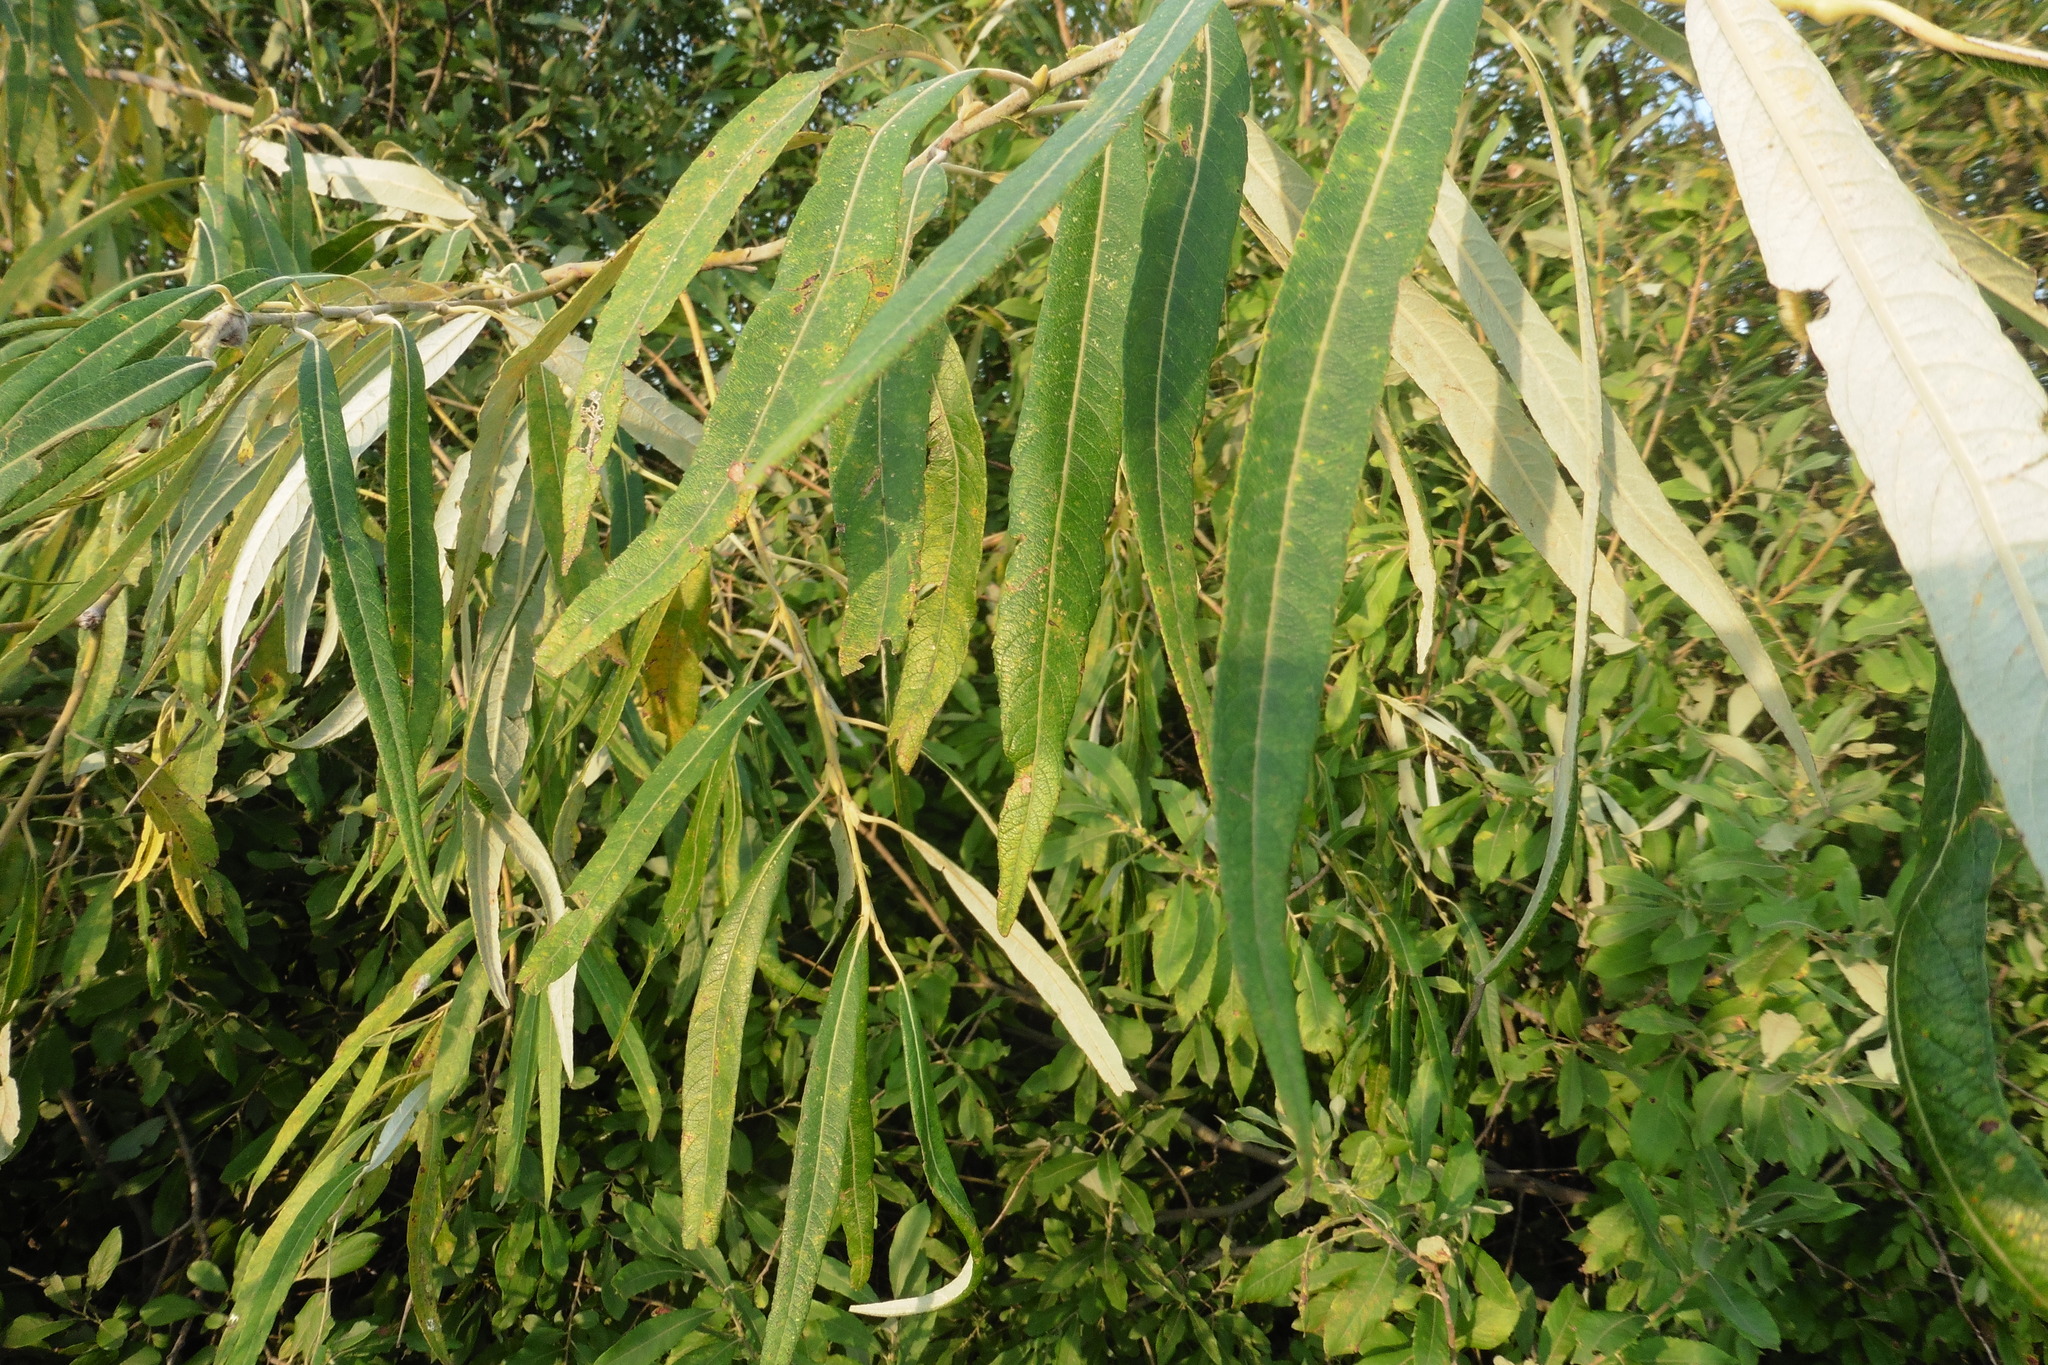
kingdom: Plantae
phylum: Tracheophyta
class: Magnoliopsida
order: Malpighiales
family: Salicaceae
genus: Salix
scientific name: Salix viminalis
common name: Osier
